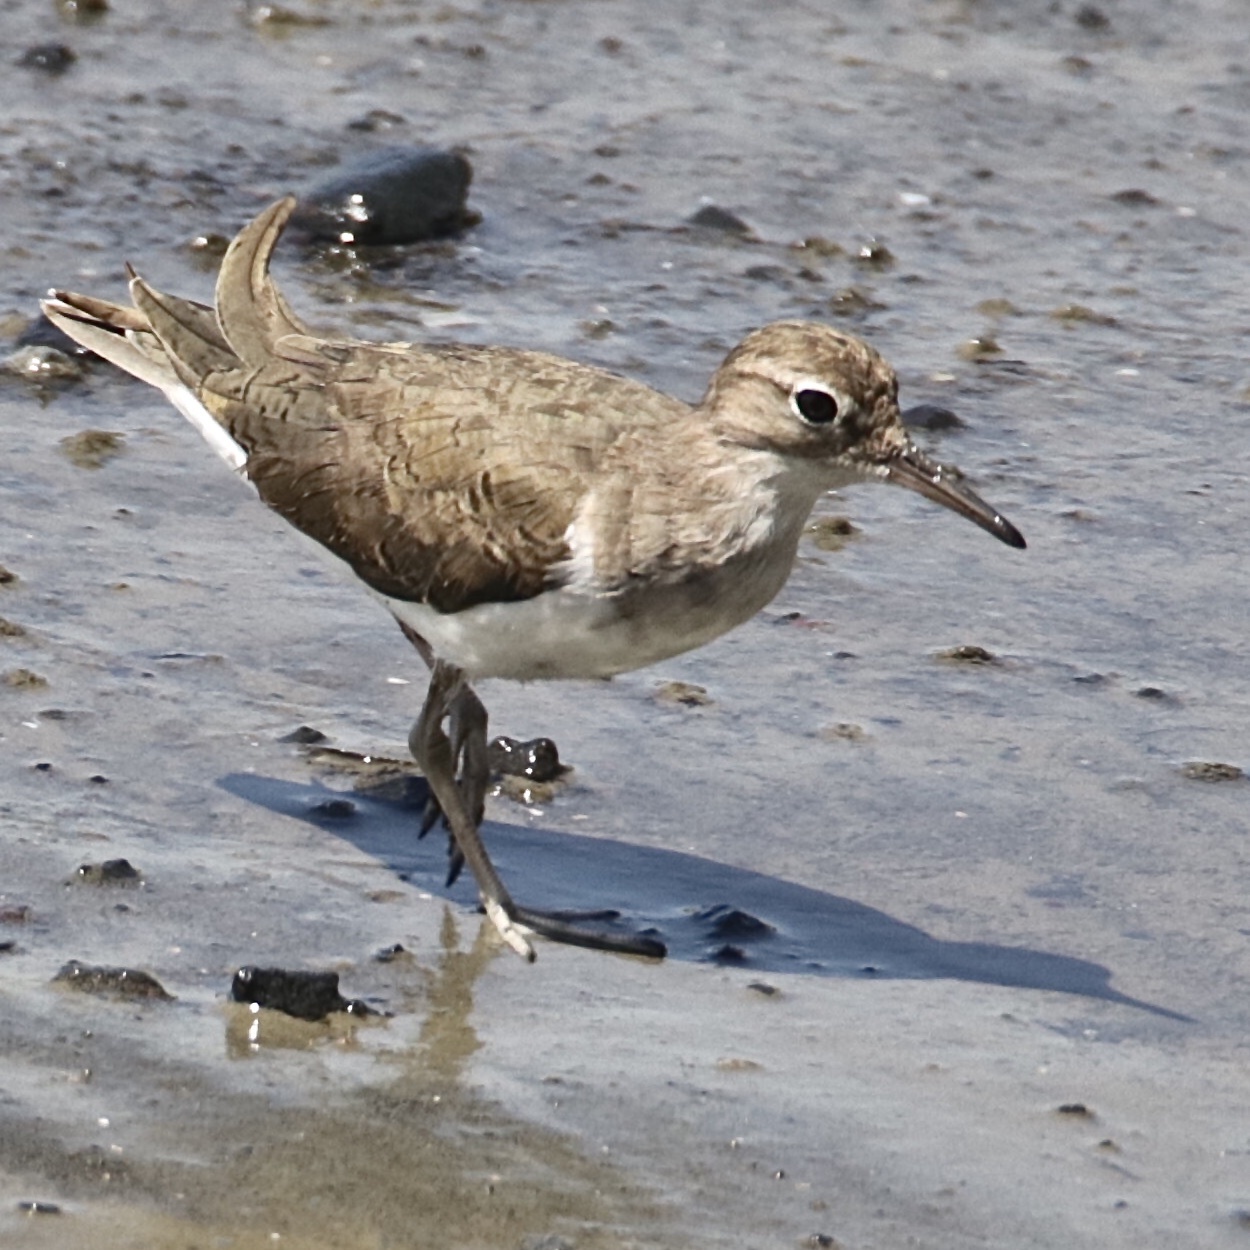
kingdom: Animalia
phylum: Chordata
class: Aves
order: Charadriiformes
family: Scolopacidae
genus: Actitis
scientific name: Actitis macularius
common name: Spotted sandpiper
